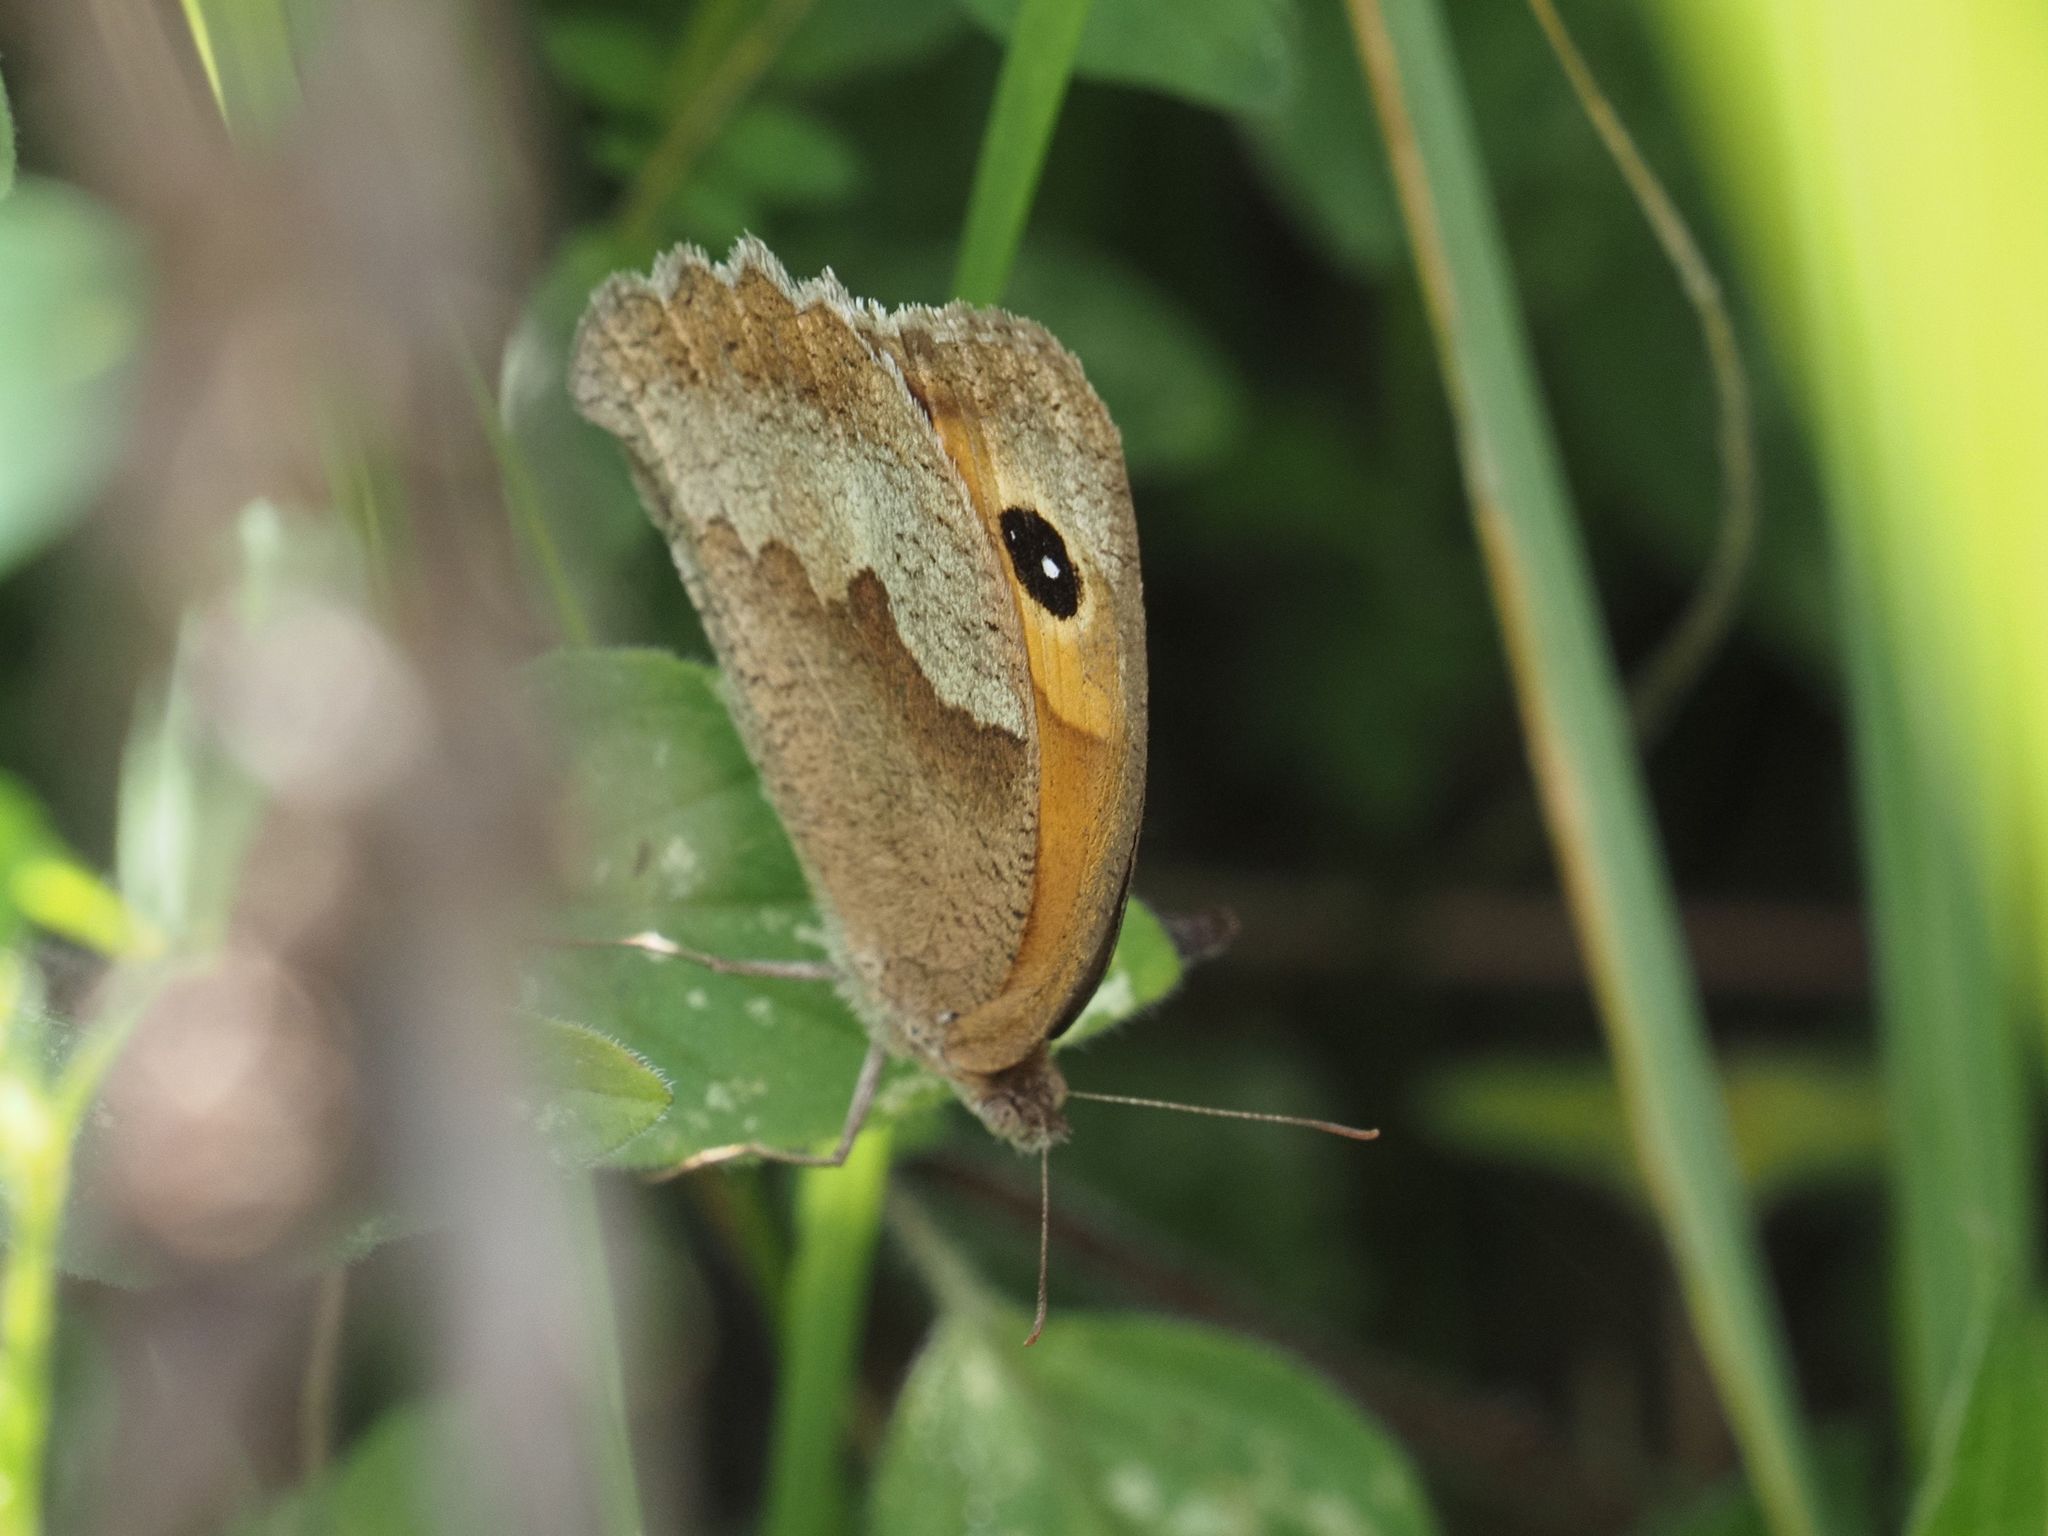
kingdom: Animalia
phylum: Arthropoda
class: Insecta
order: Lepidoptera
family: Nymphalidae
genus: Maniola
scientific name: Maniola jurtina
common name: Meadow brown
